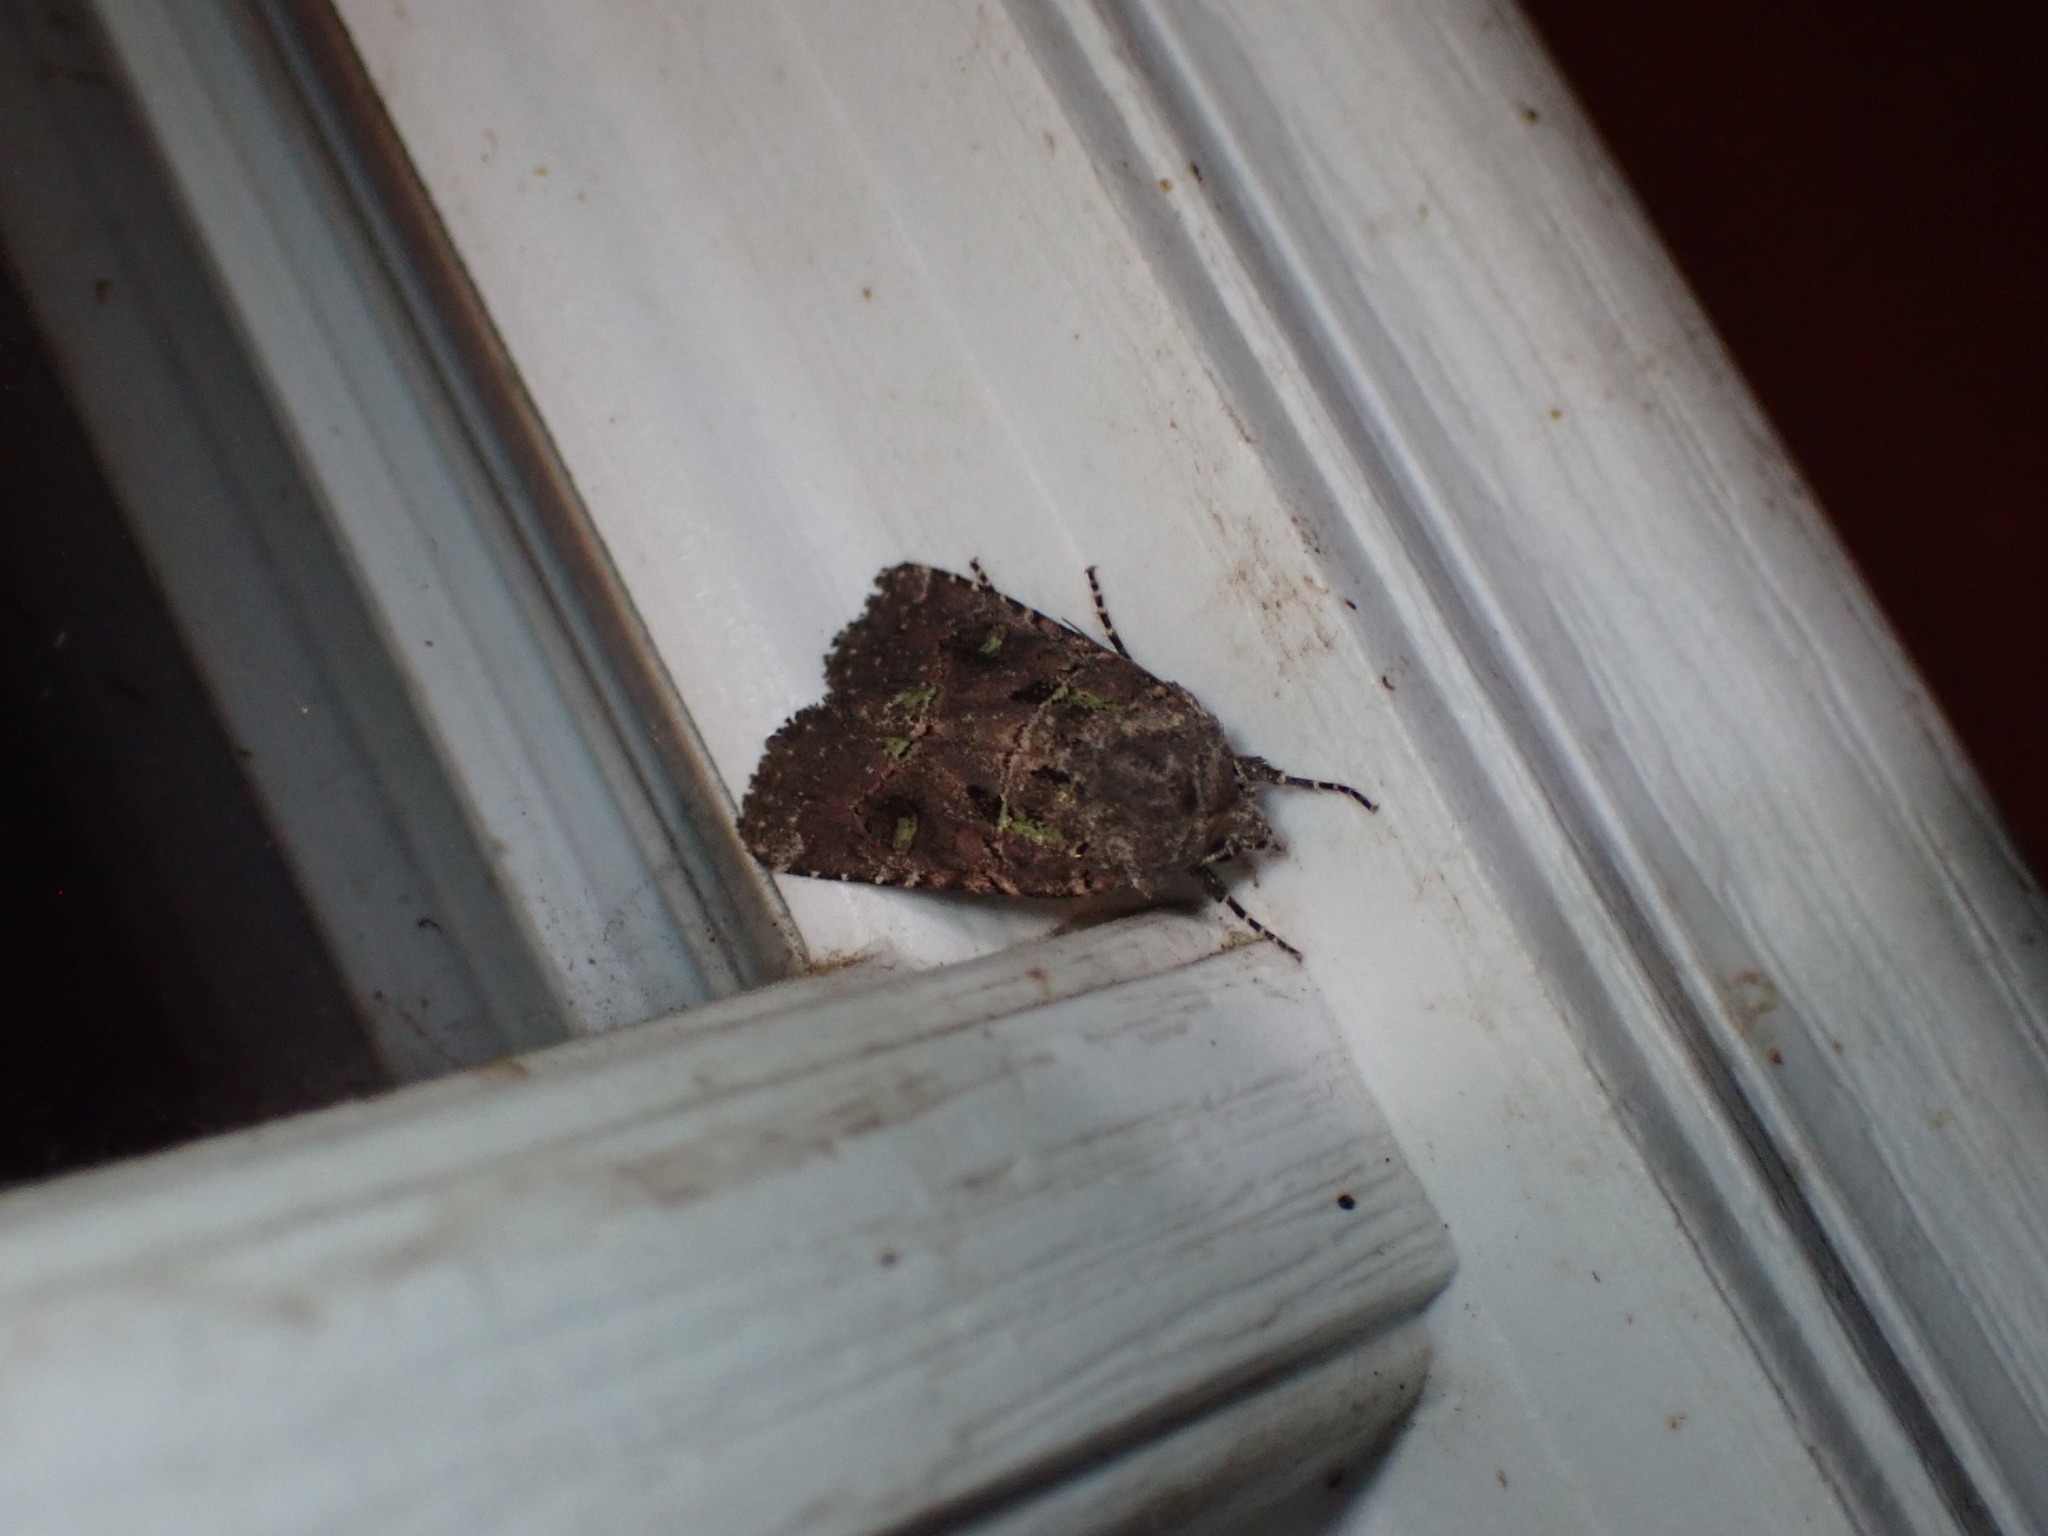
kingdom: Animalia
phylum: Arthropoda
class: Insecta
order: Lepidoptera
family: Noctuidae
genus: Lacinipolia
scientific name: Lacinipolia renigera
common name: Kidney-spotted minor
